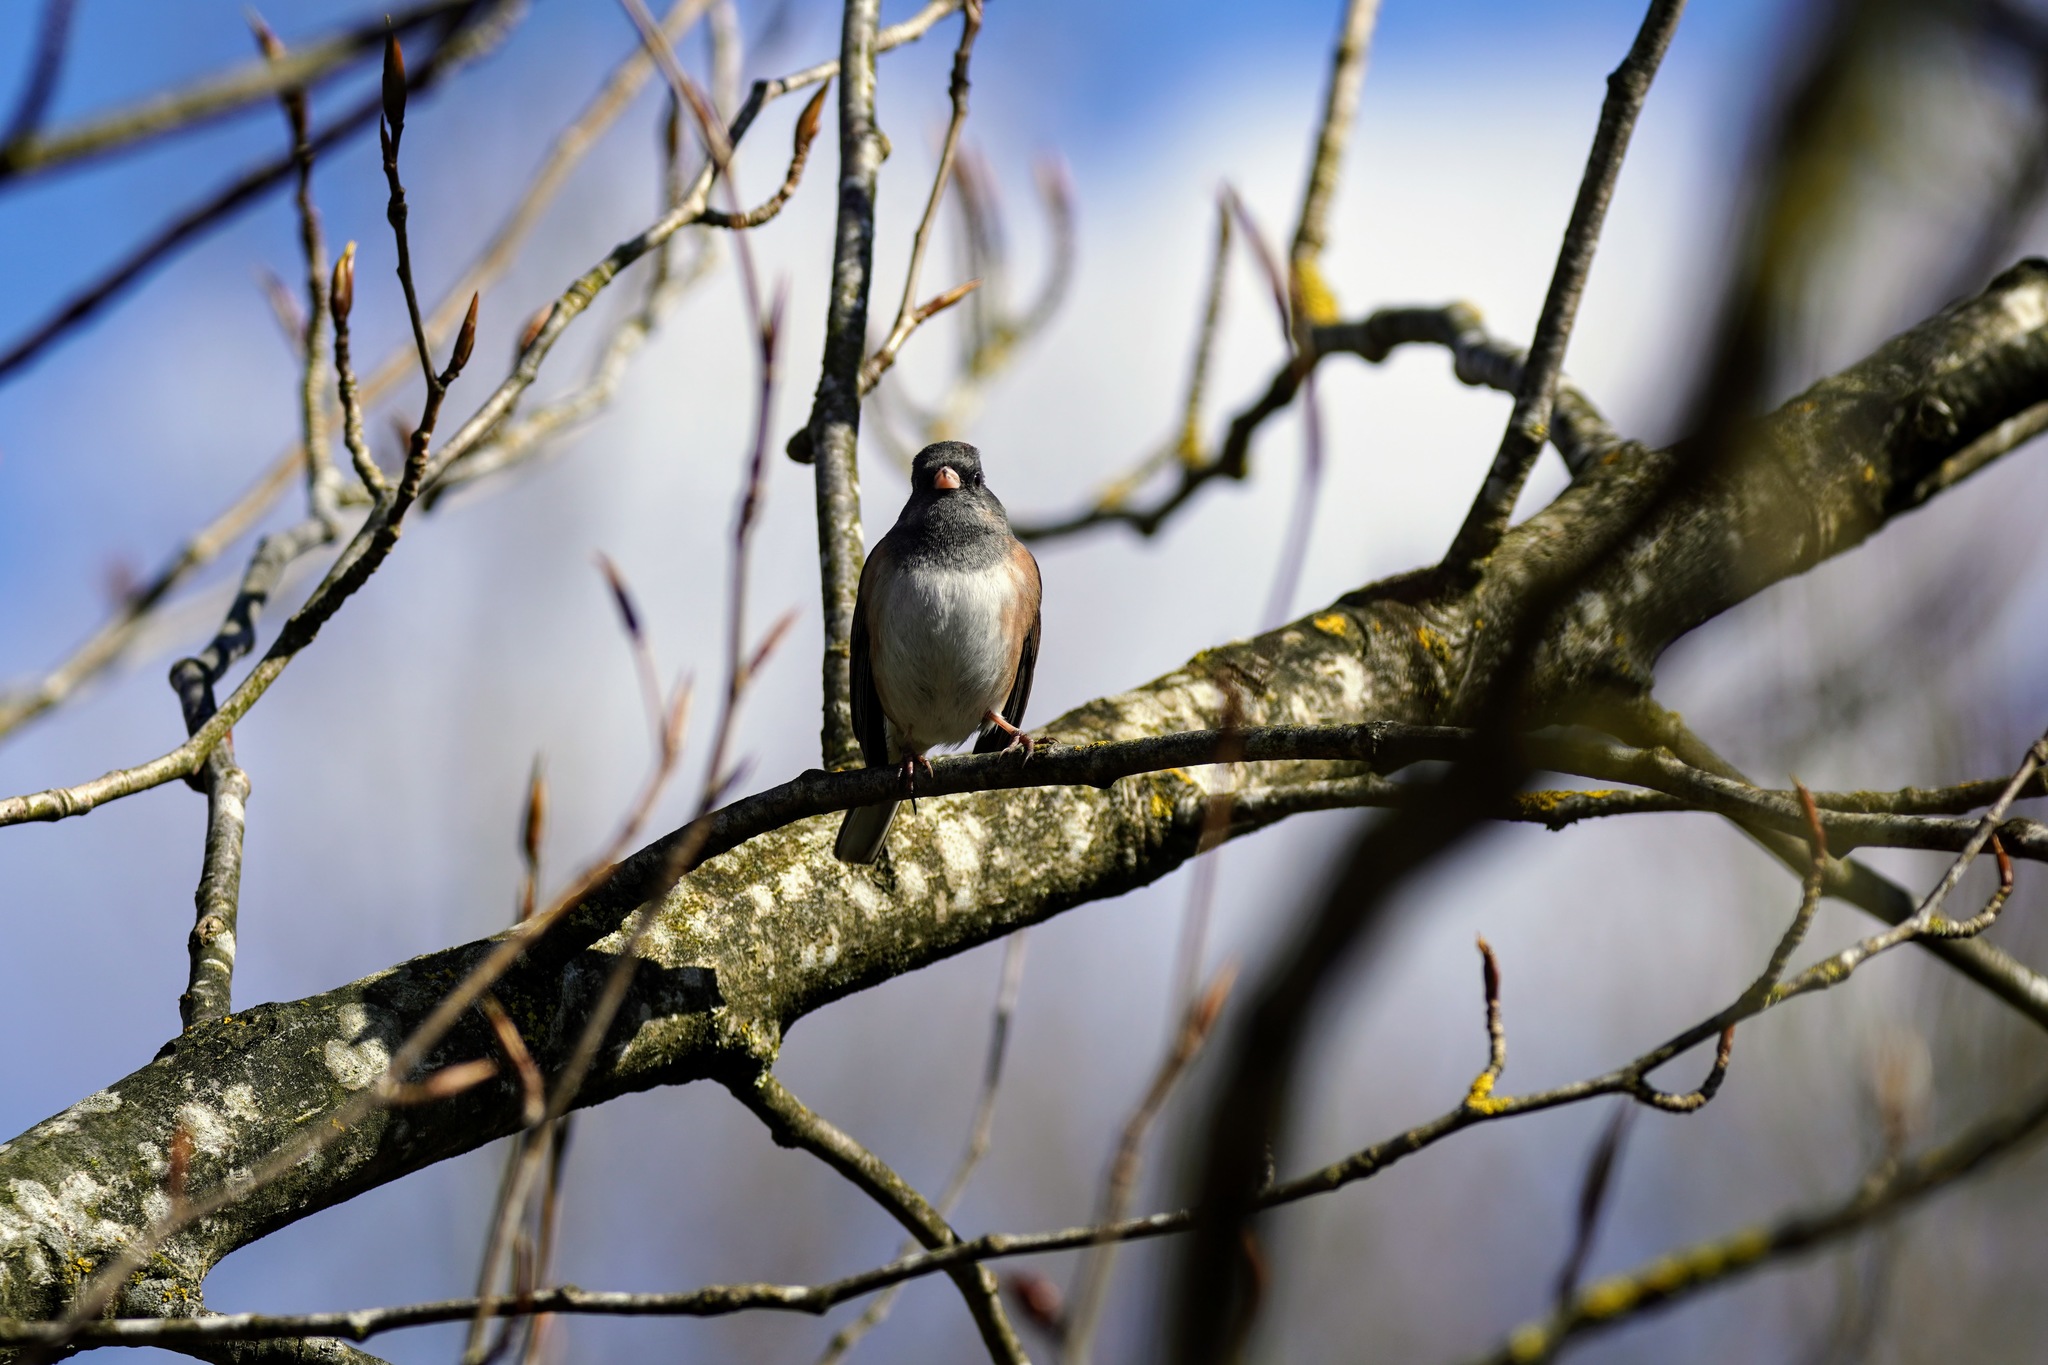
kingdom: Animalia
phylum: Chordata
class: Aves
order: Passeriformes
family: Passerellidae
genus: Junco
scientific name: Junco hyemalis
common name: Dark-eyed junco
